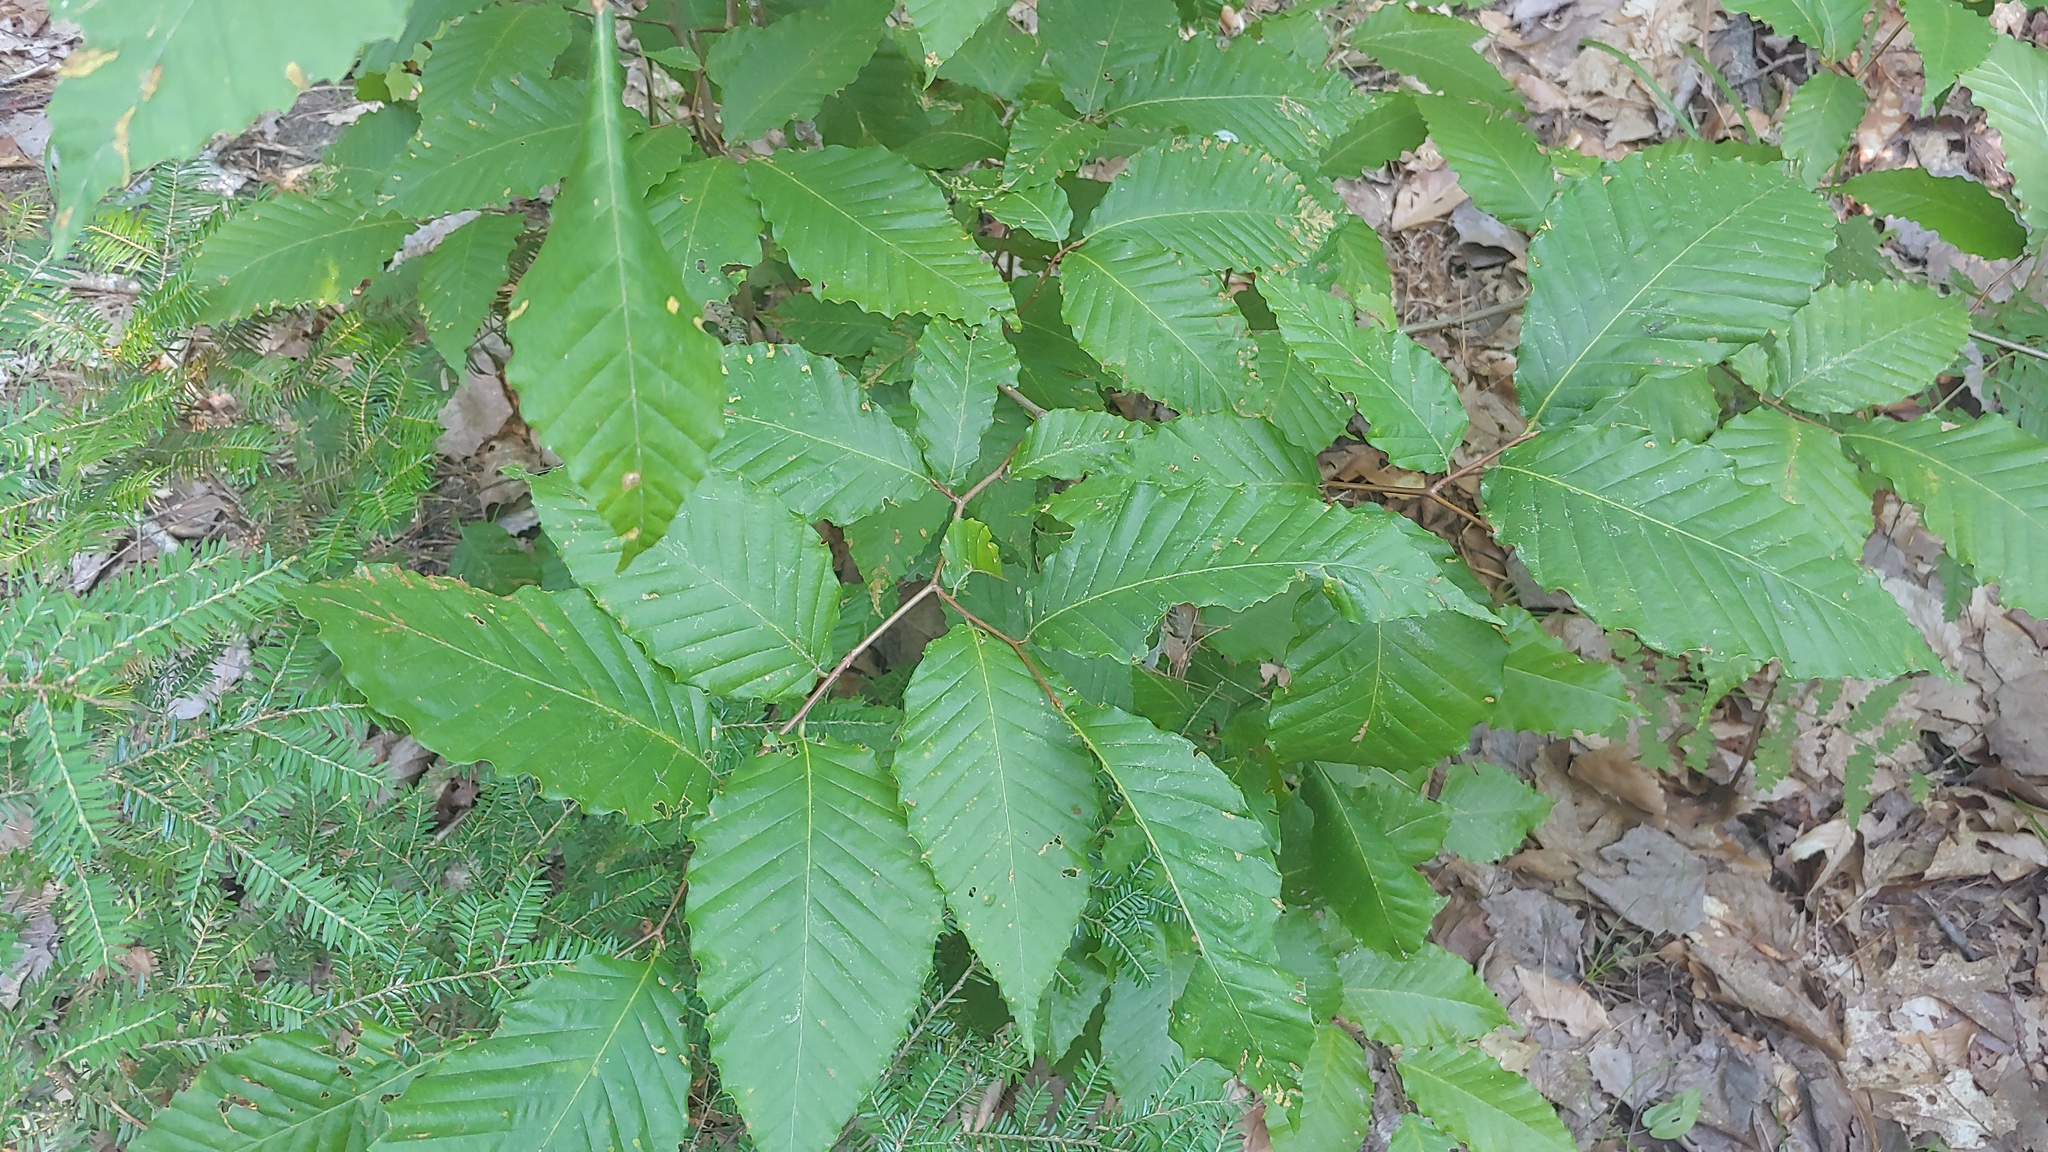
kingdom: Plantae
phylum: Tracheophyta
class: Magnoliopsida
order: Fagales
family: Fagaceae
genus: Fagus
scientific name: Fagus grandifolia
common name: American beech
